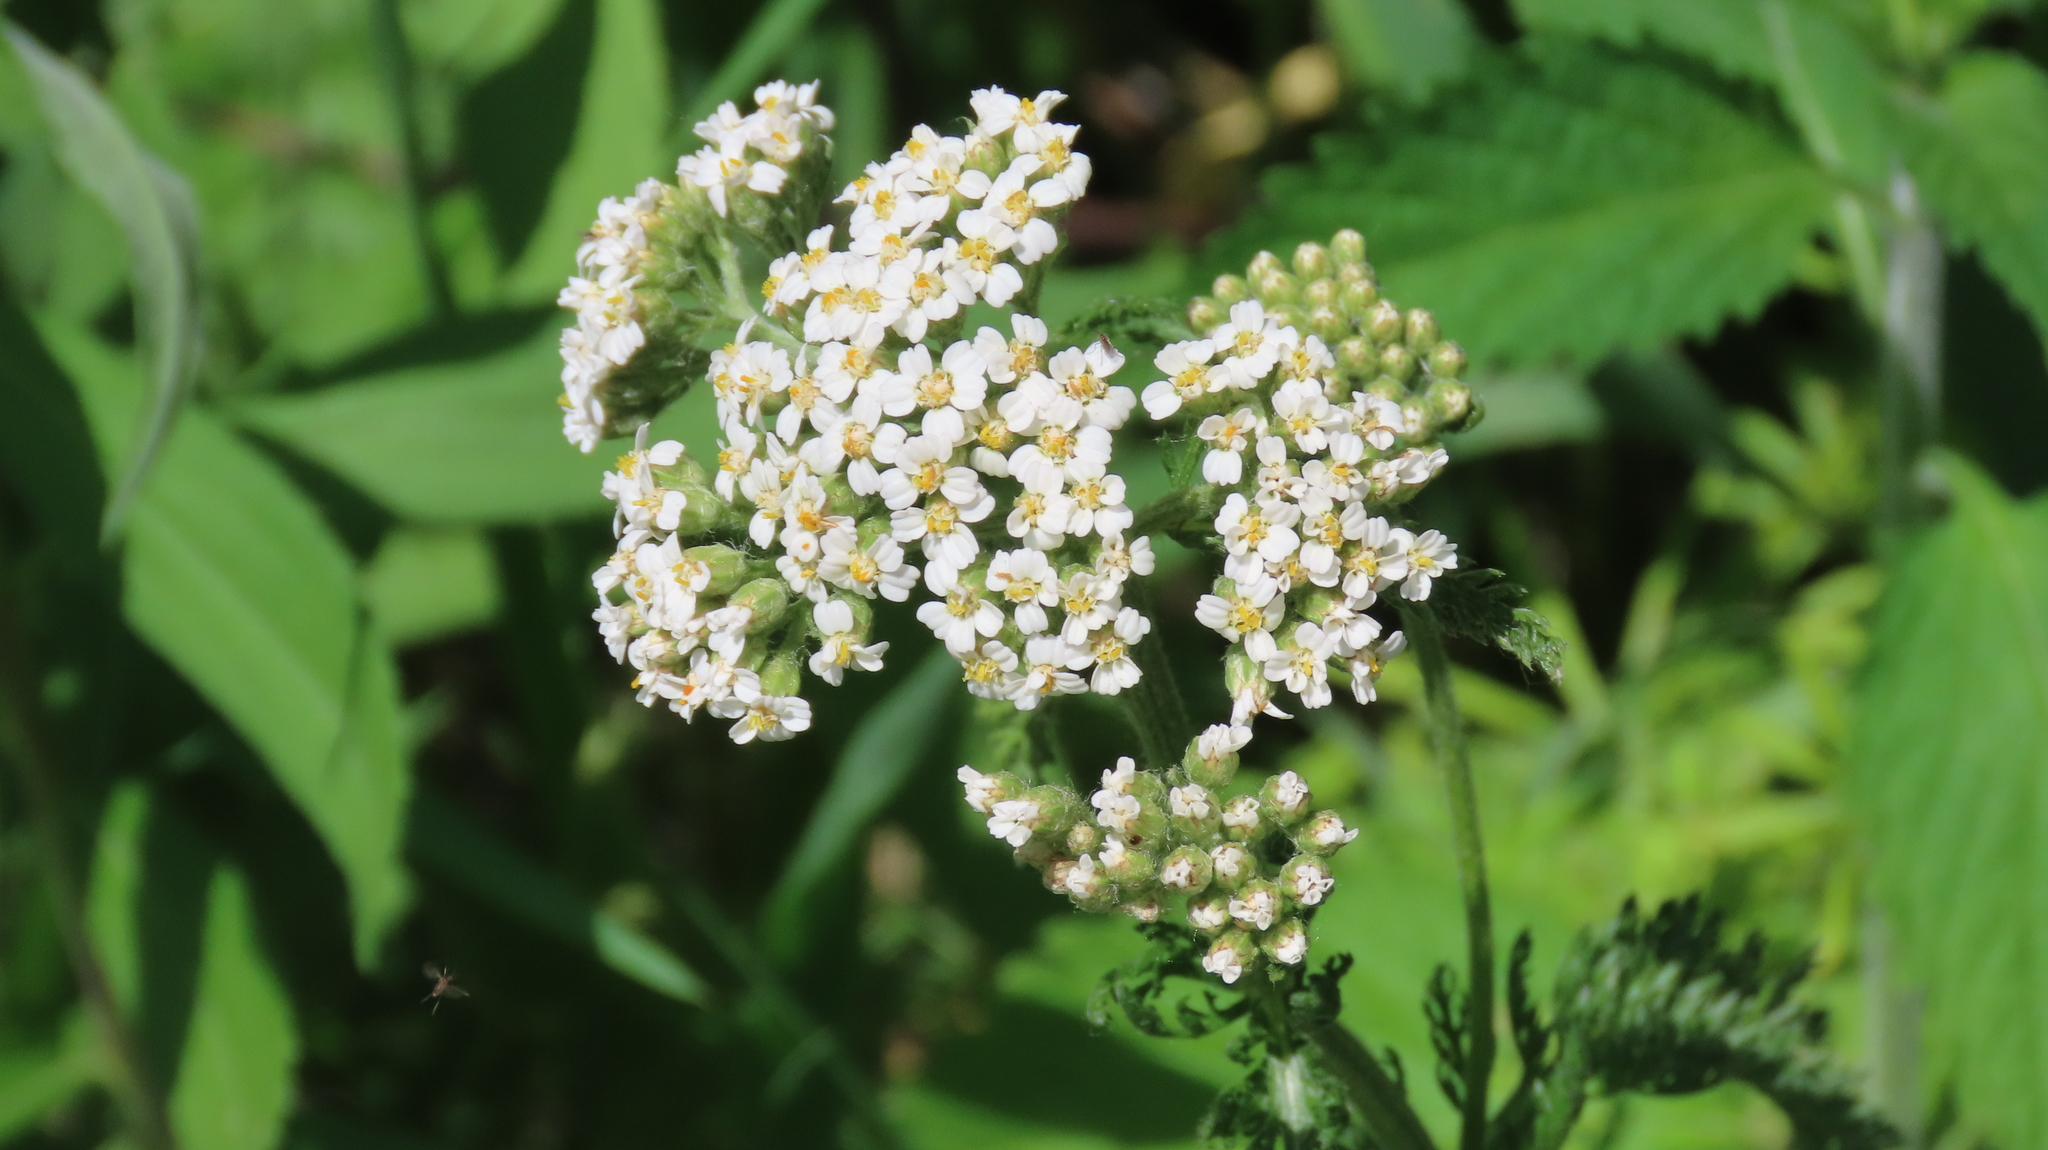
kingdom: Plantae
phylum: Tracheophyta
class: Magnoliopsida
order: Asterales
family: Asteraceae
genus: Achillea
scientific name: Achillea millefolium
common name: Yarrow
